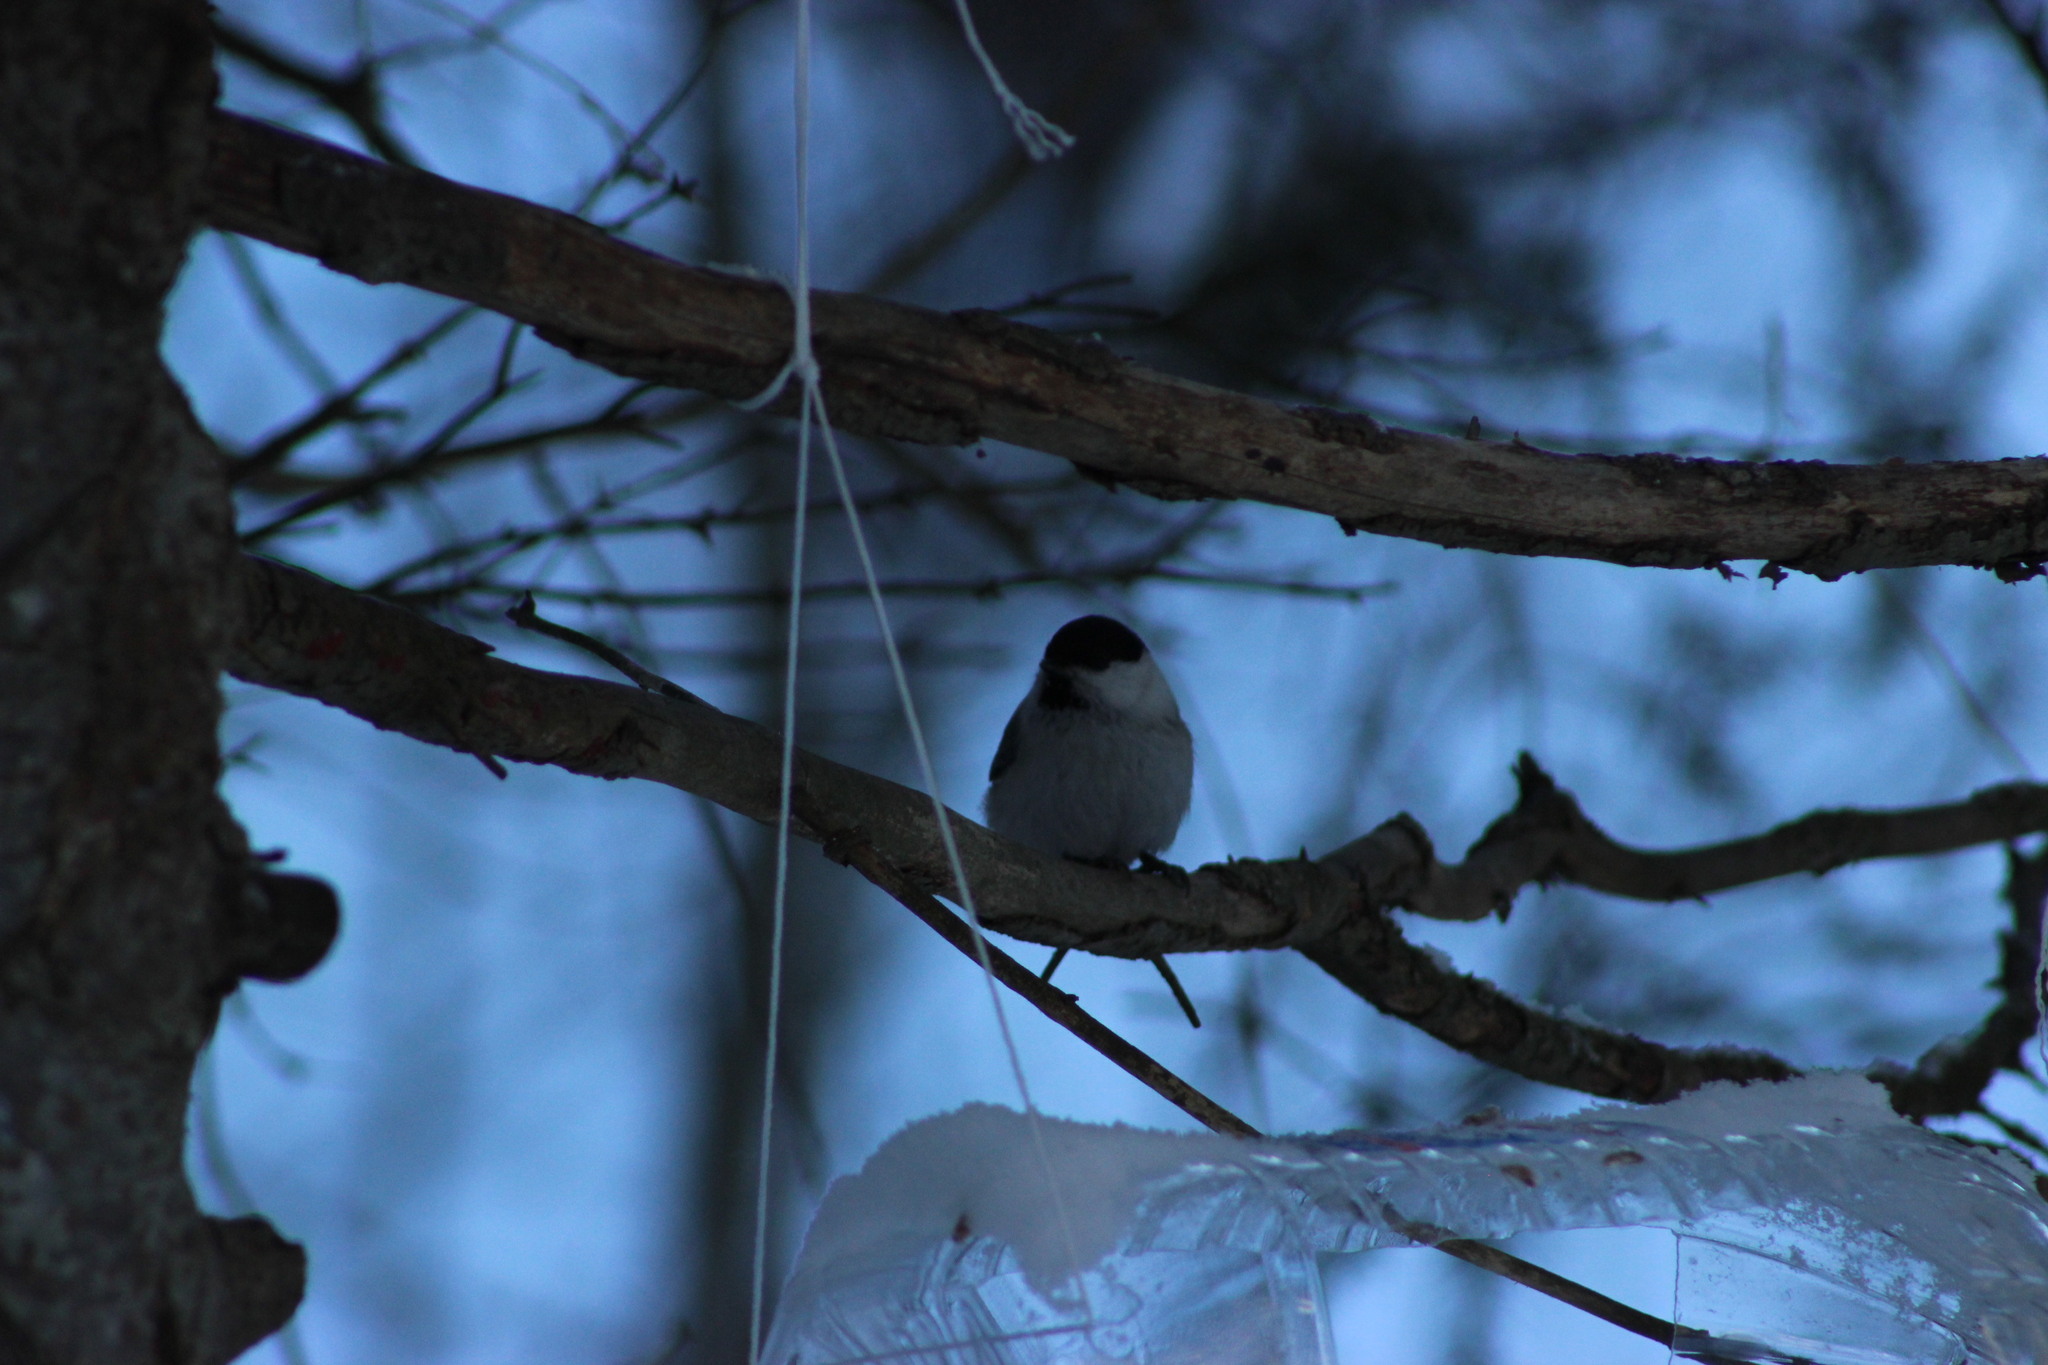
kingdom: Animalia
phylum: Chordata
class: Aves
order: Passeriformes
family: Paridae
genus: Poecile
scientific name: Poecile montanus
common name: Willow tit
